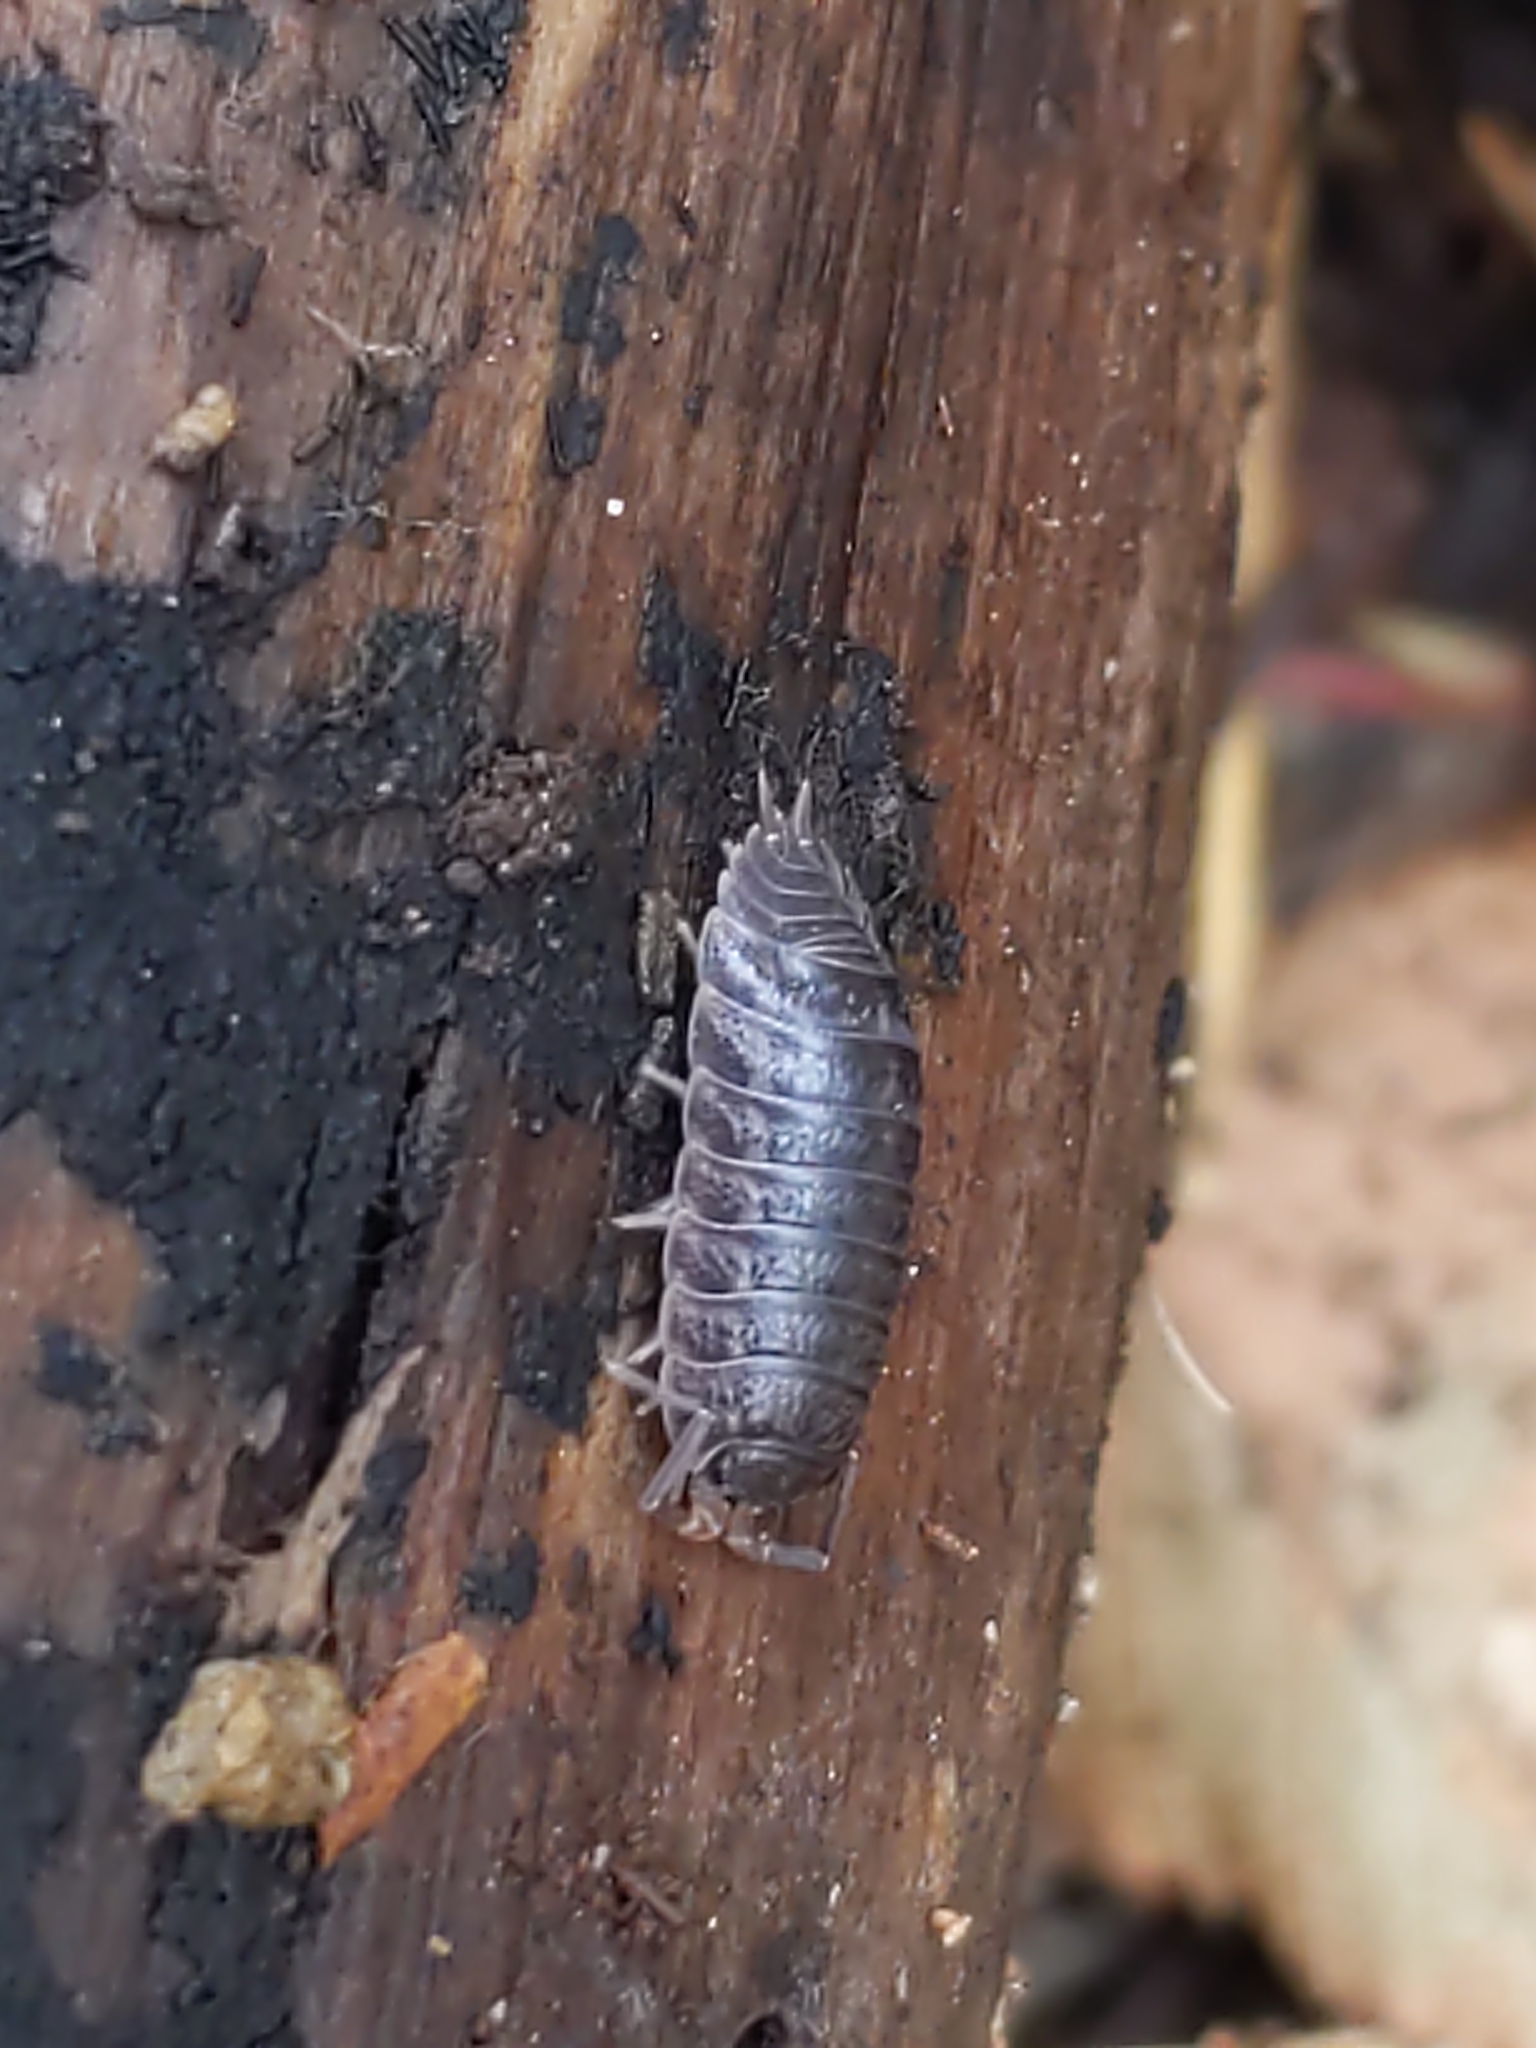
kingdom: Animalia
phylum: Arthropoda
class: Malacostraca
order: Isopoda
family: Trachelipodidae
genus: Trachelipus
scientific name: Trachelipus rathkii
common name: Isopod
